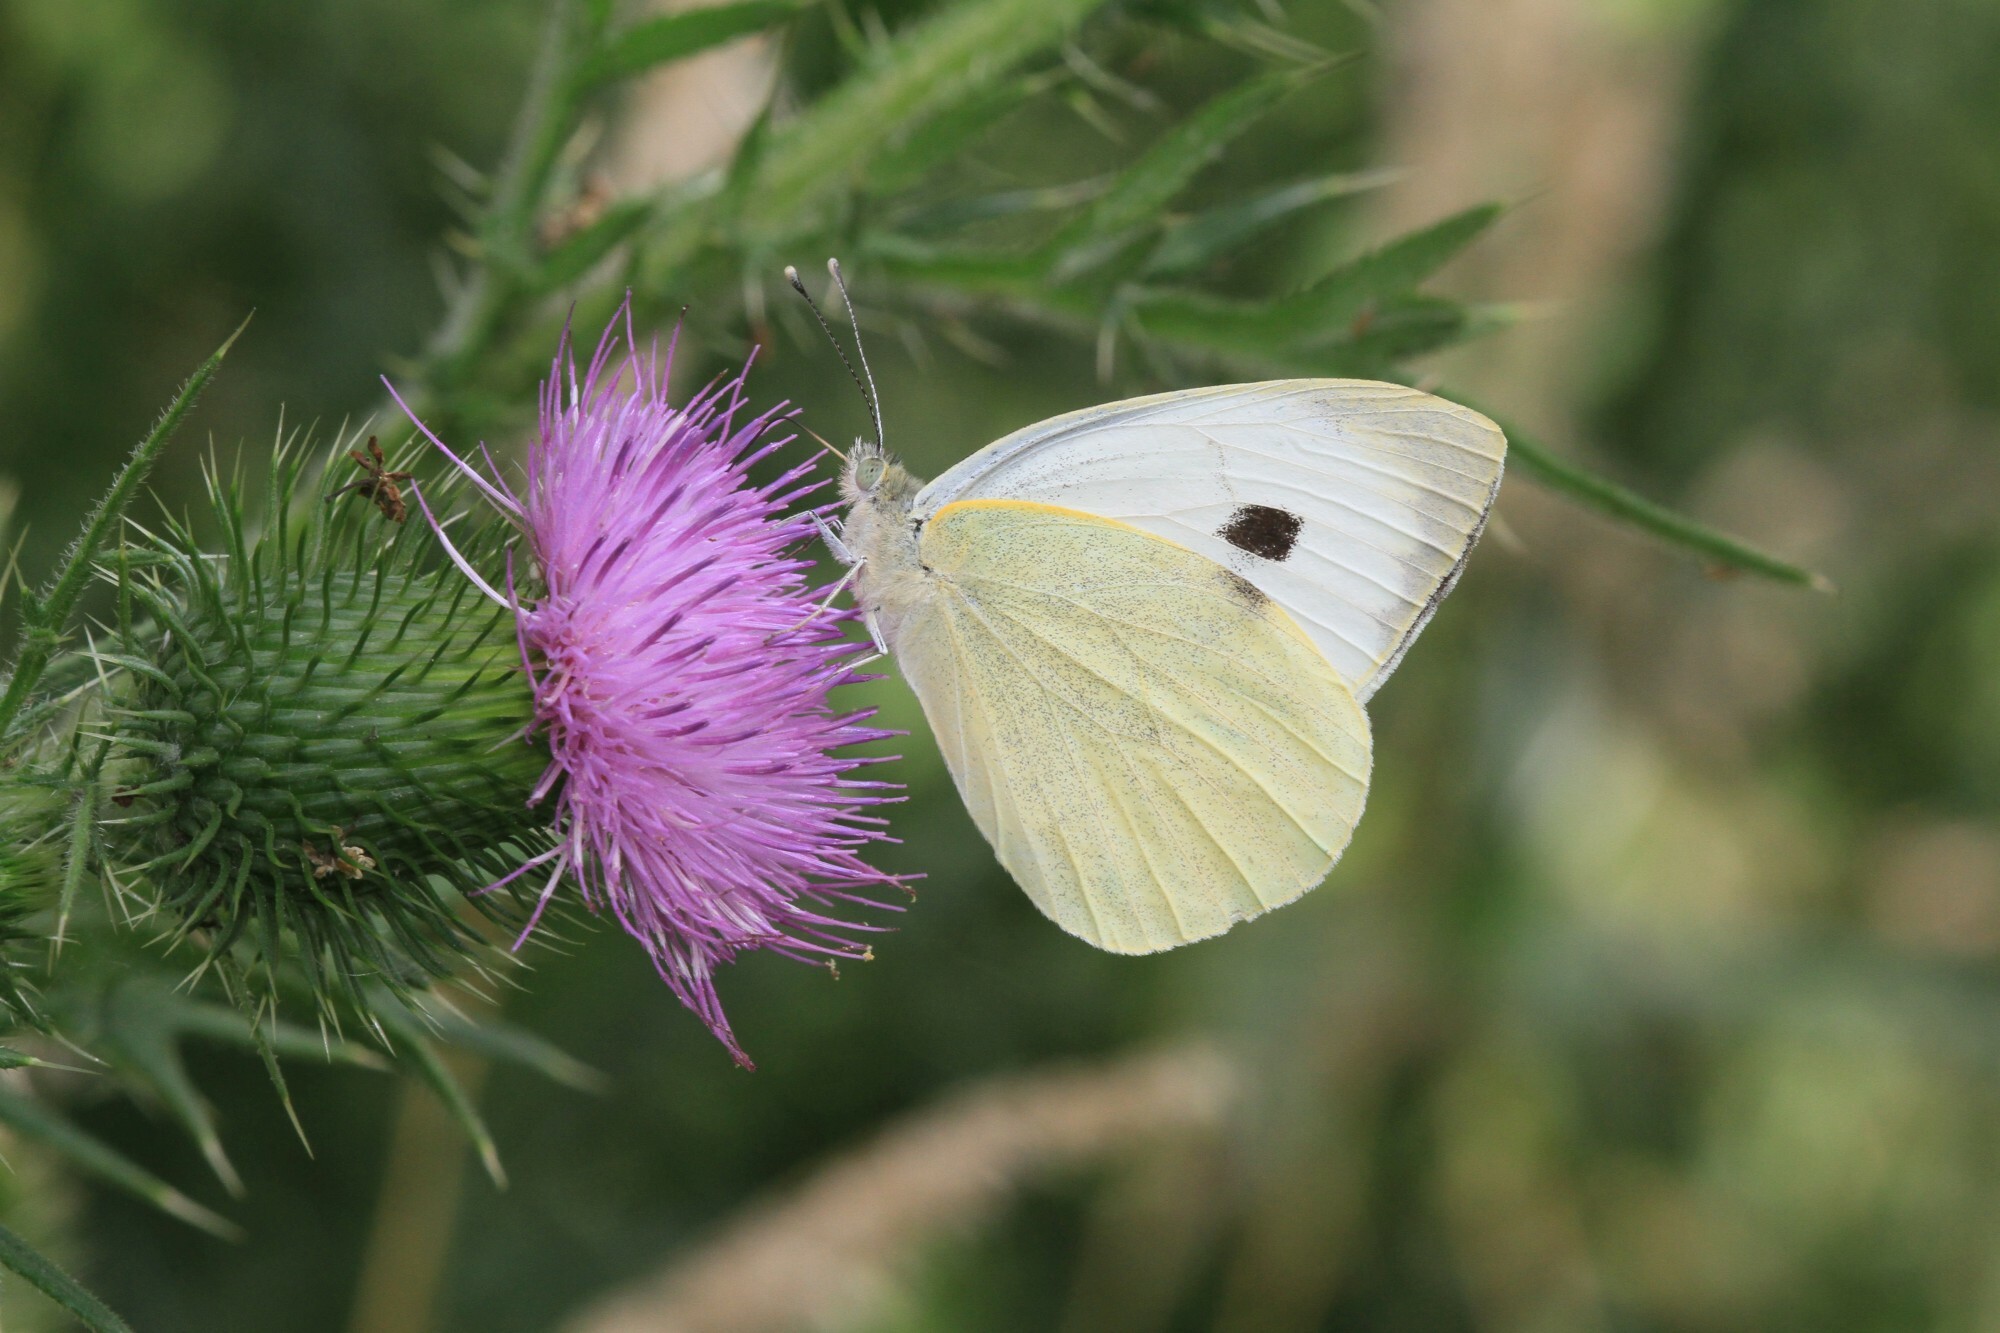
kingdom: Animalia
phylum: Arthropoda
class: Insecta
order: Lepidoptera
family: Pieridae
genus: Pieris
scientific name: Pieris brassicae
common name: Large white
